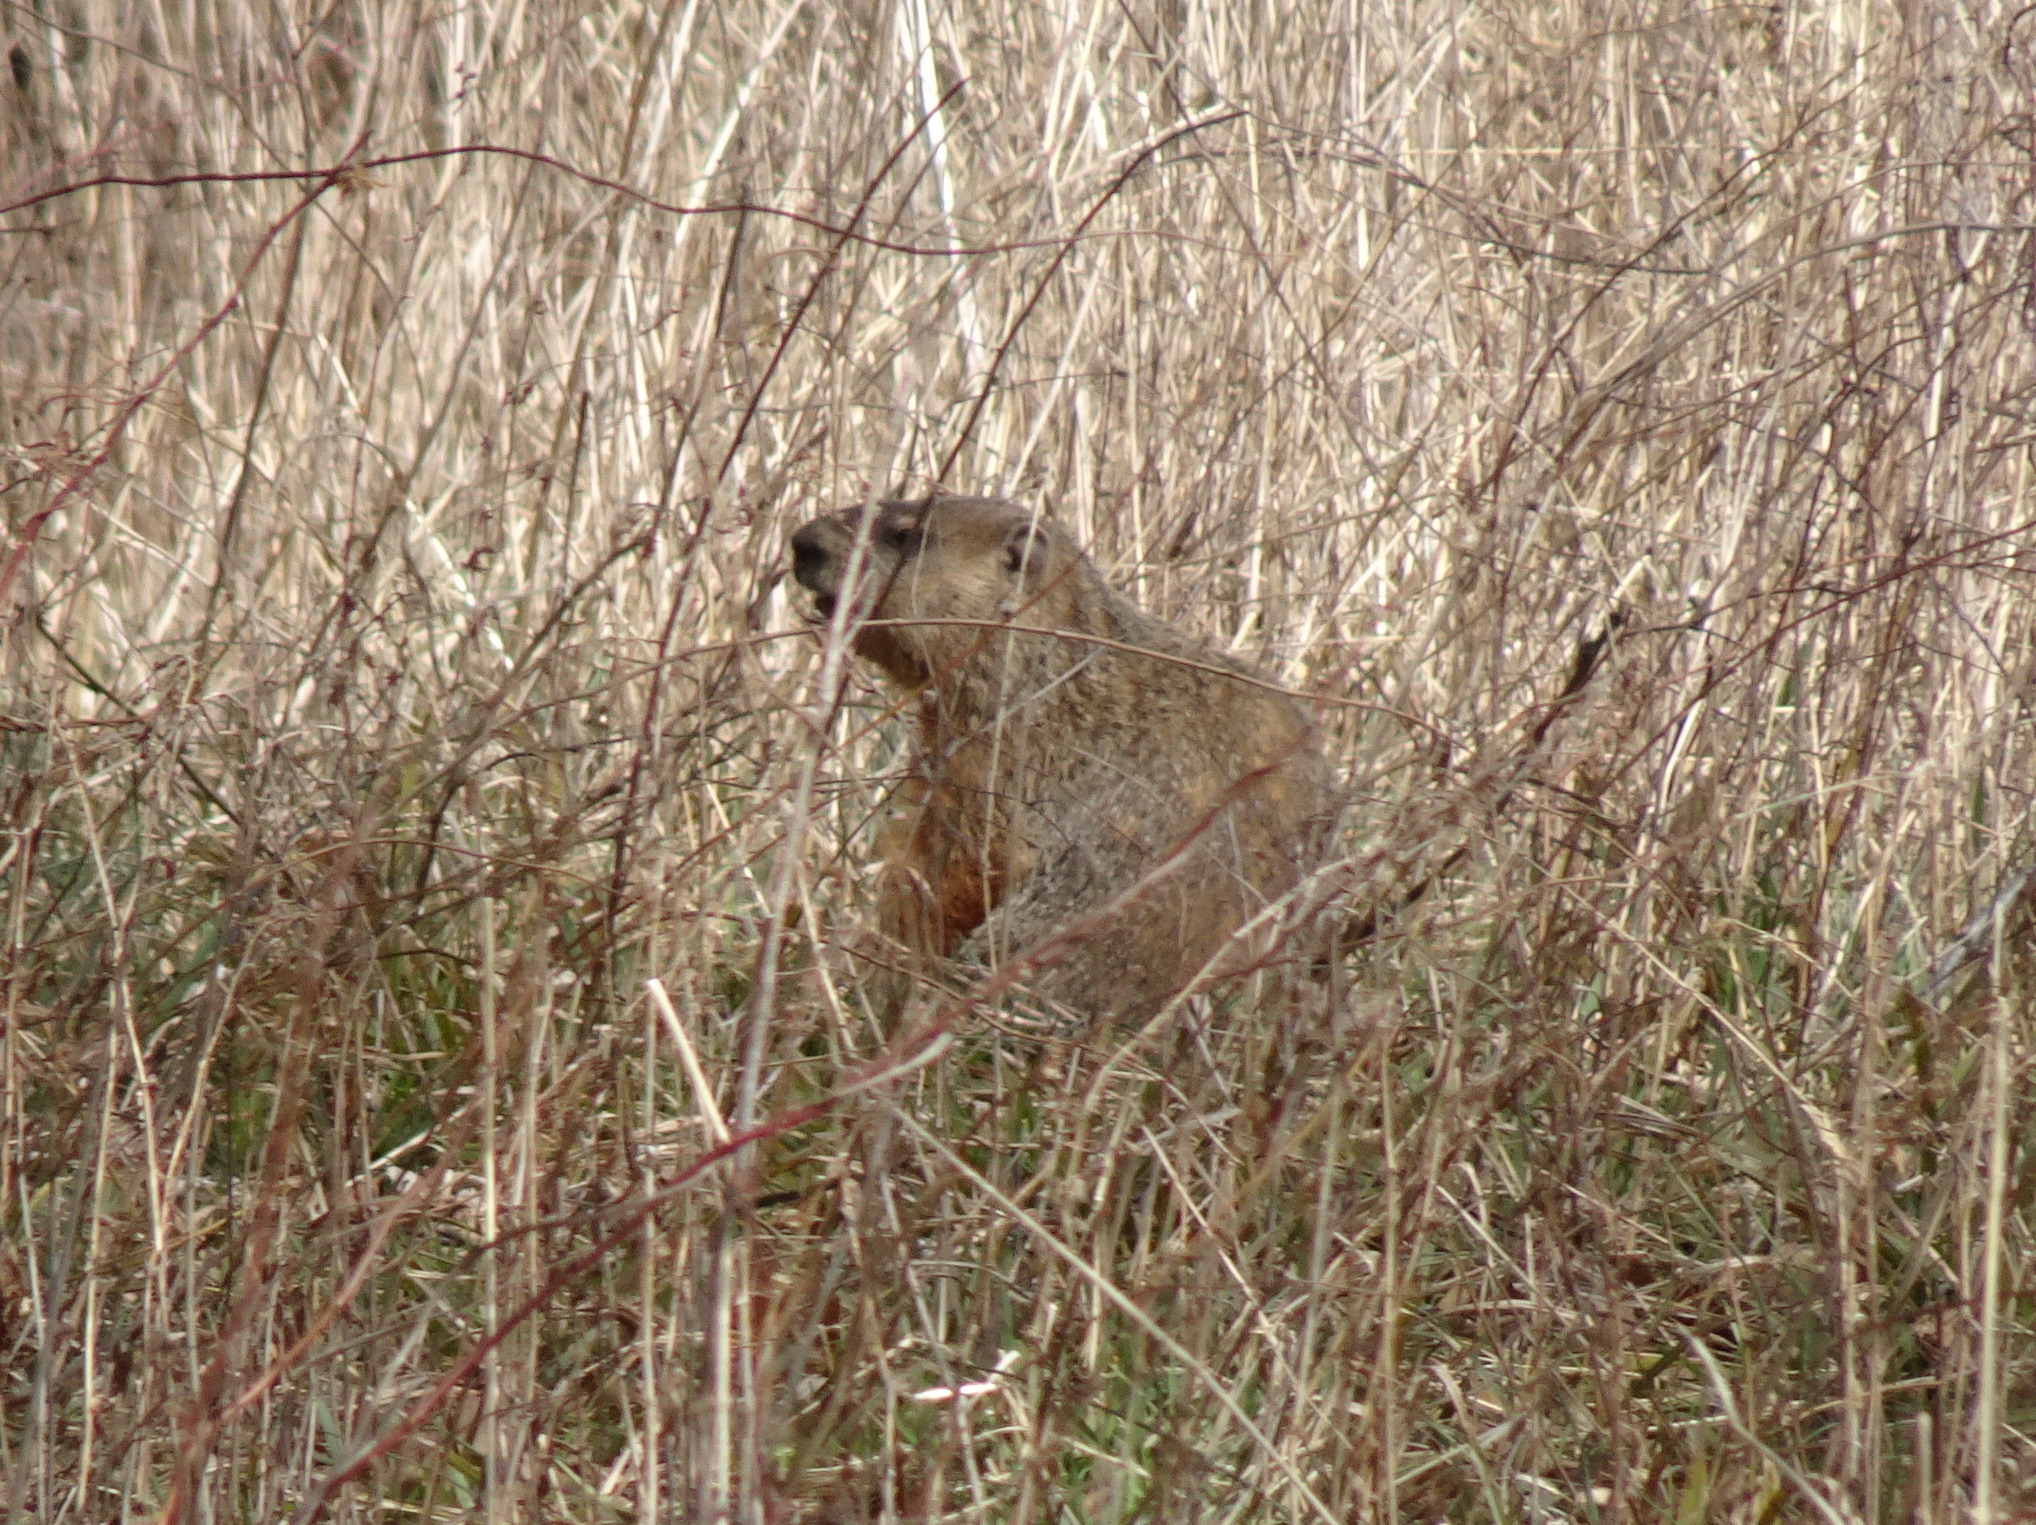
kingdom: Animalia
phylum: Chordata
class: Mammalia
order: Rodentia
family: Sciuridae
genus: Marmota
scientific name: Marmota monax
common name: Groundhog
